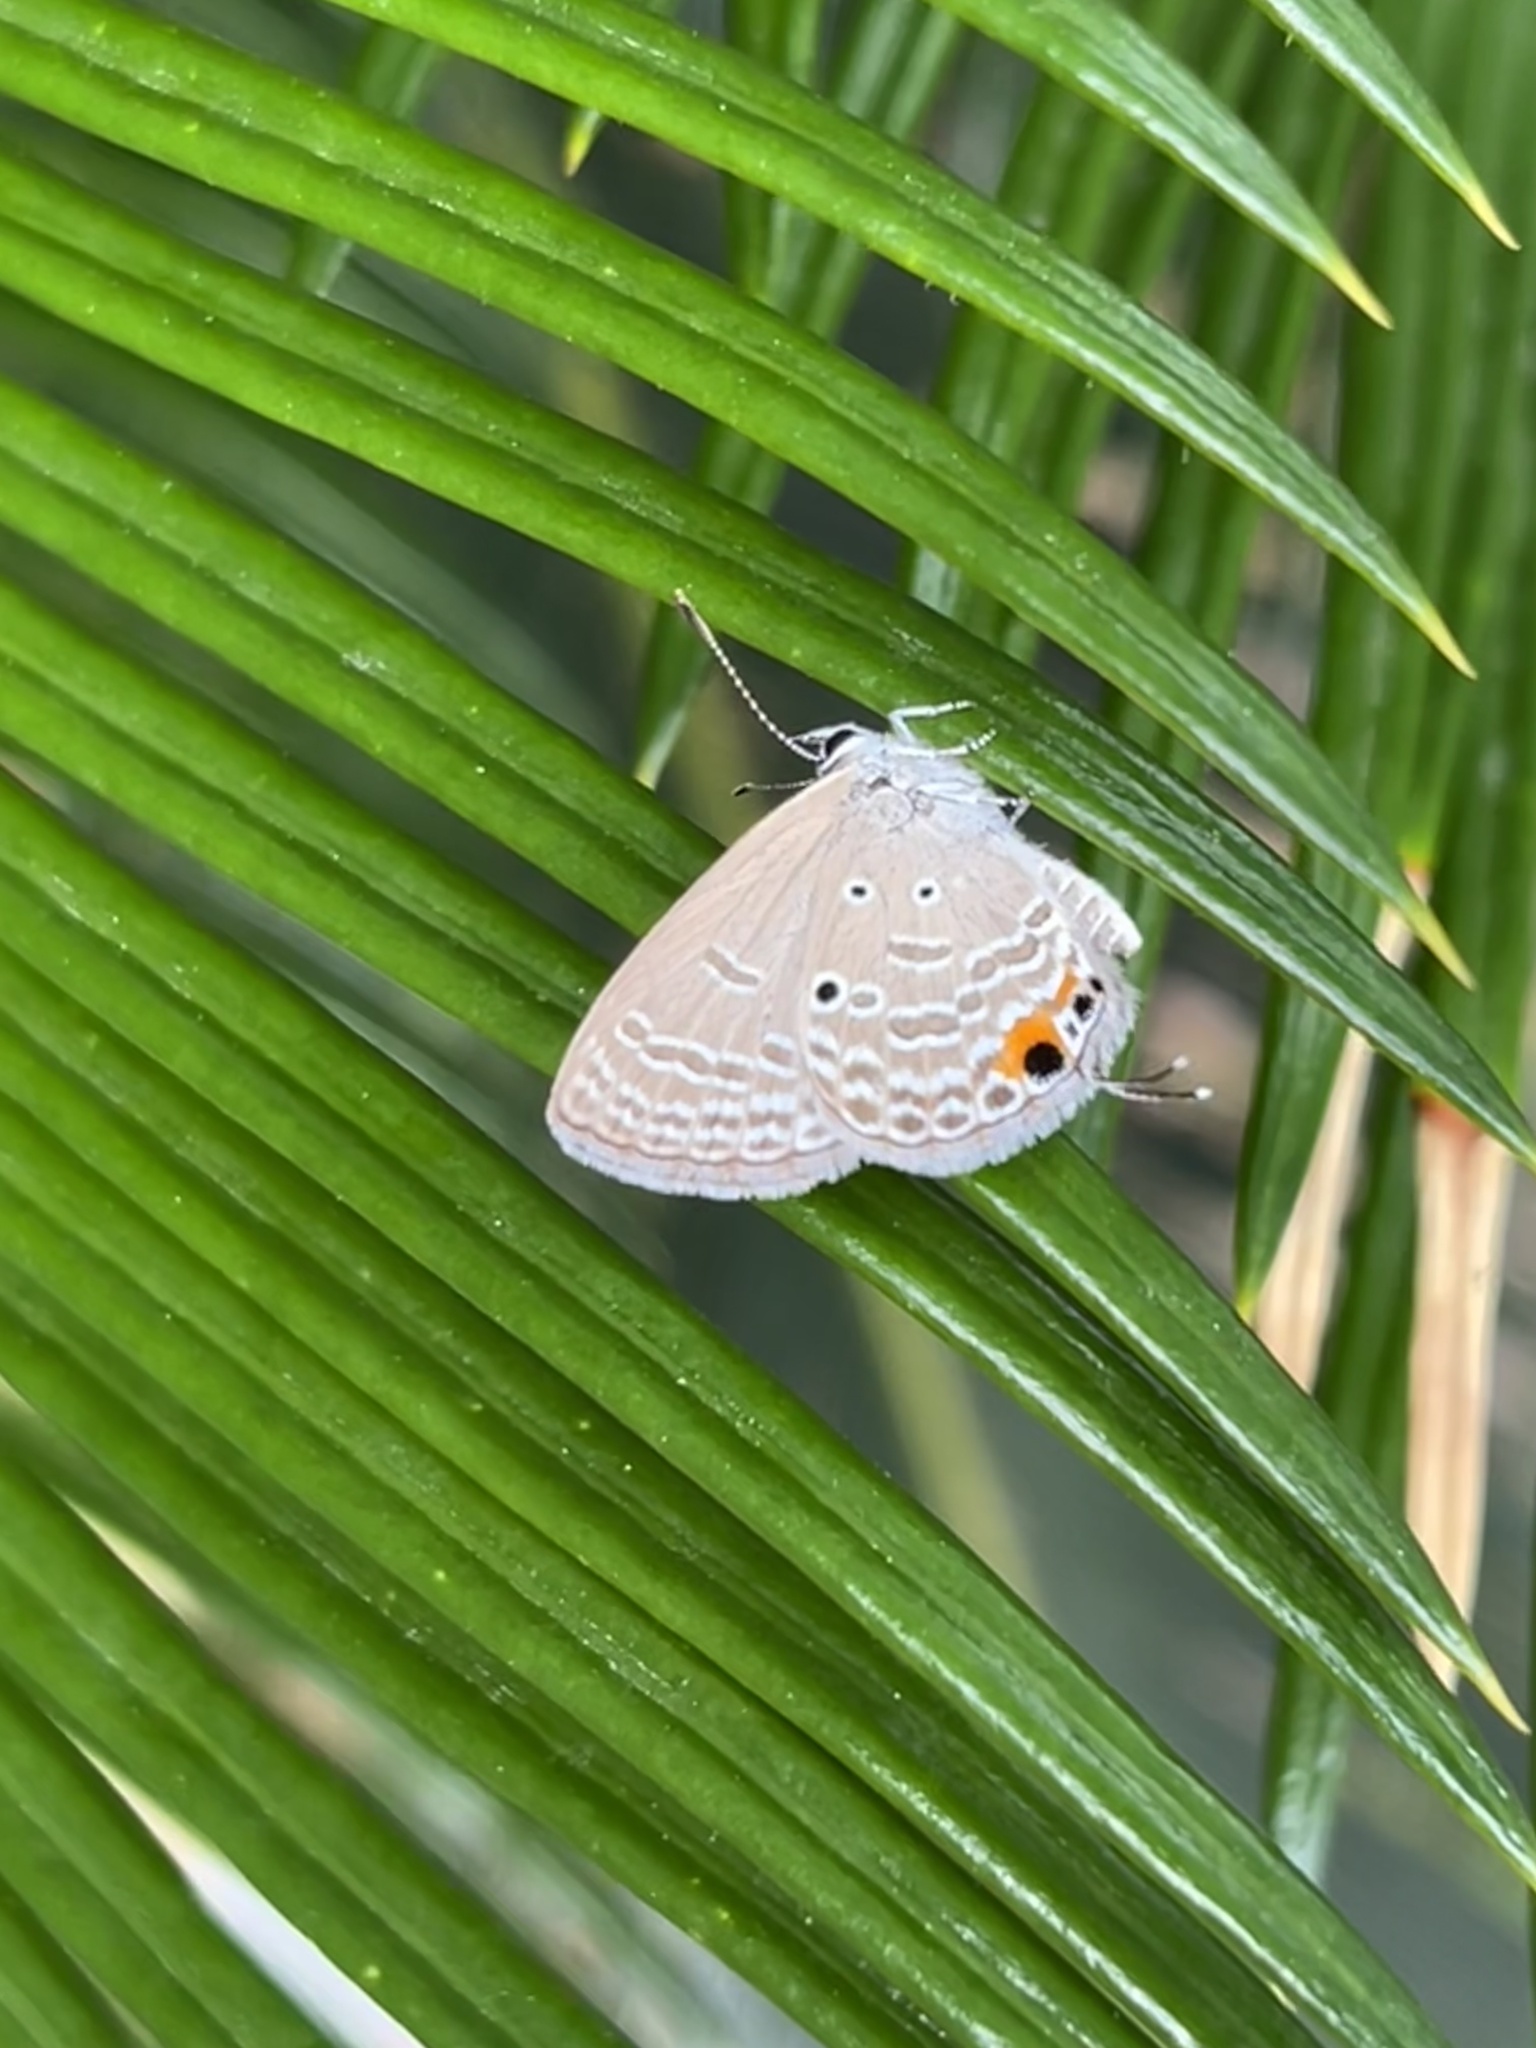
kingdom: Animalia
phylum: Arthropoda
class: Insecta
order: Lepidoptera
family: Lycaenidae
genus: Luthrodes
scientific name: Luthrodes pandava
